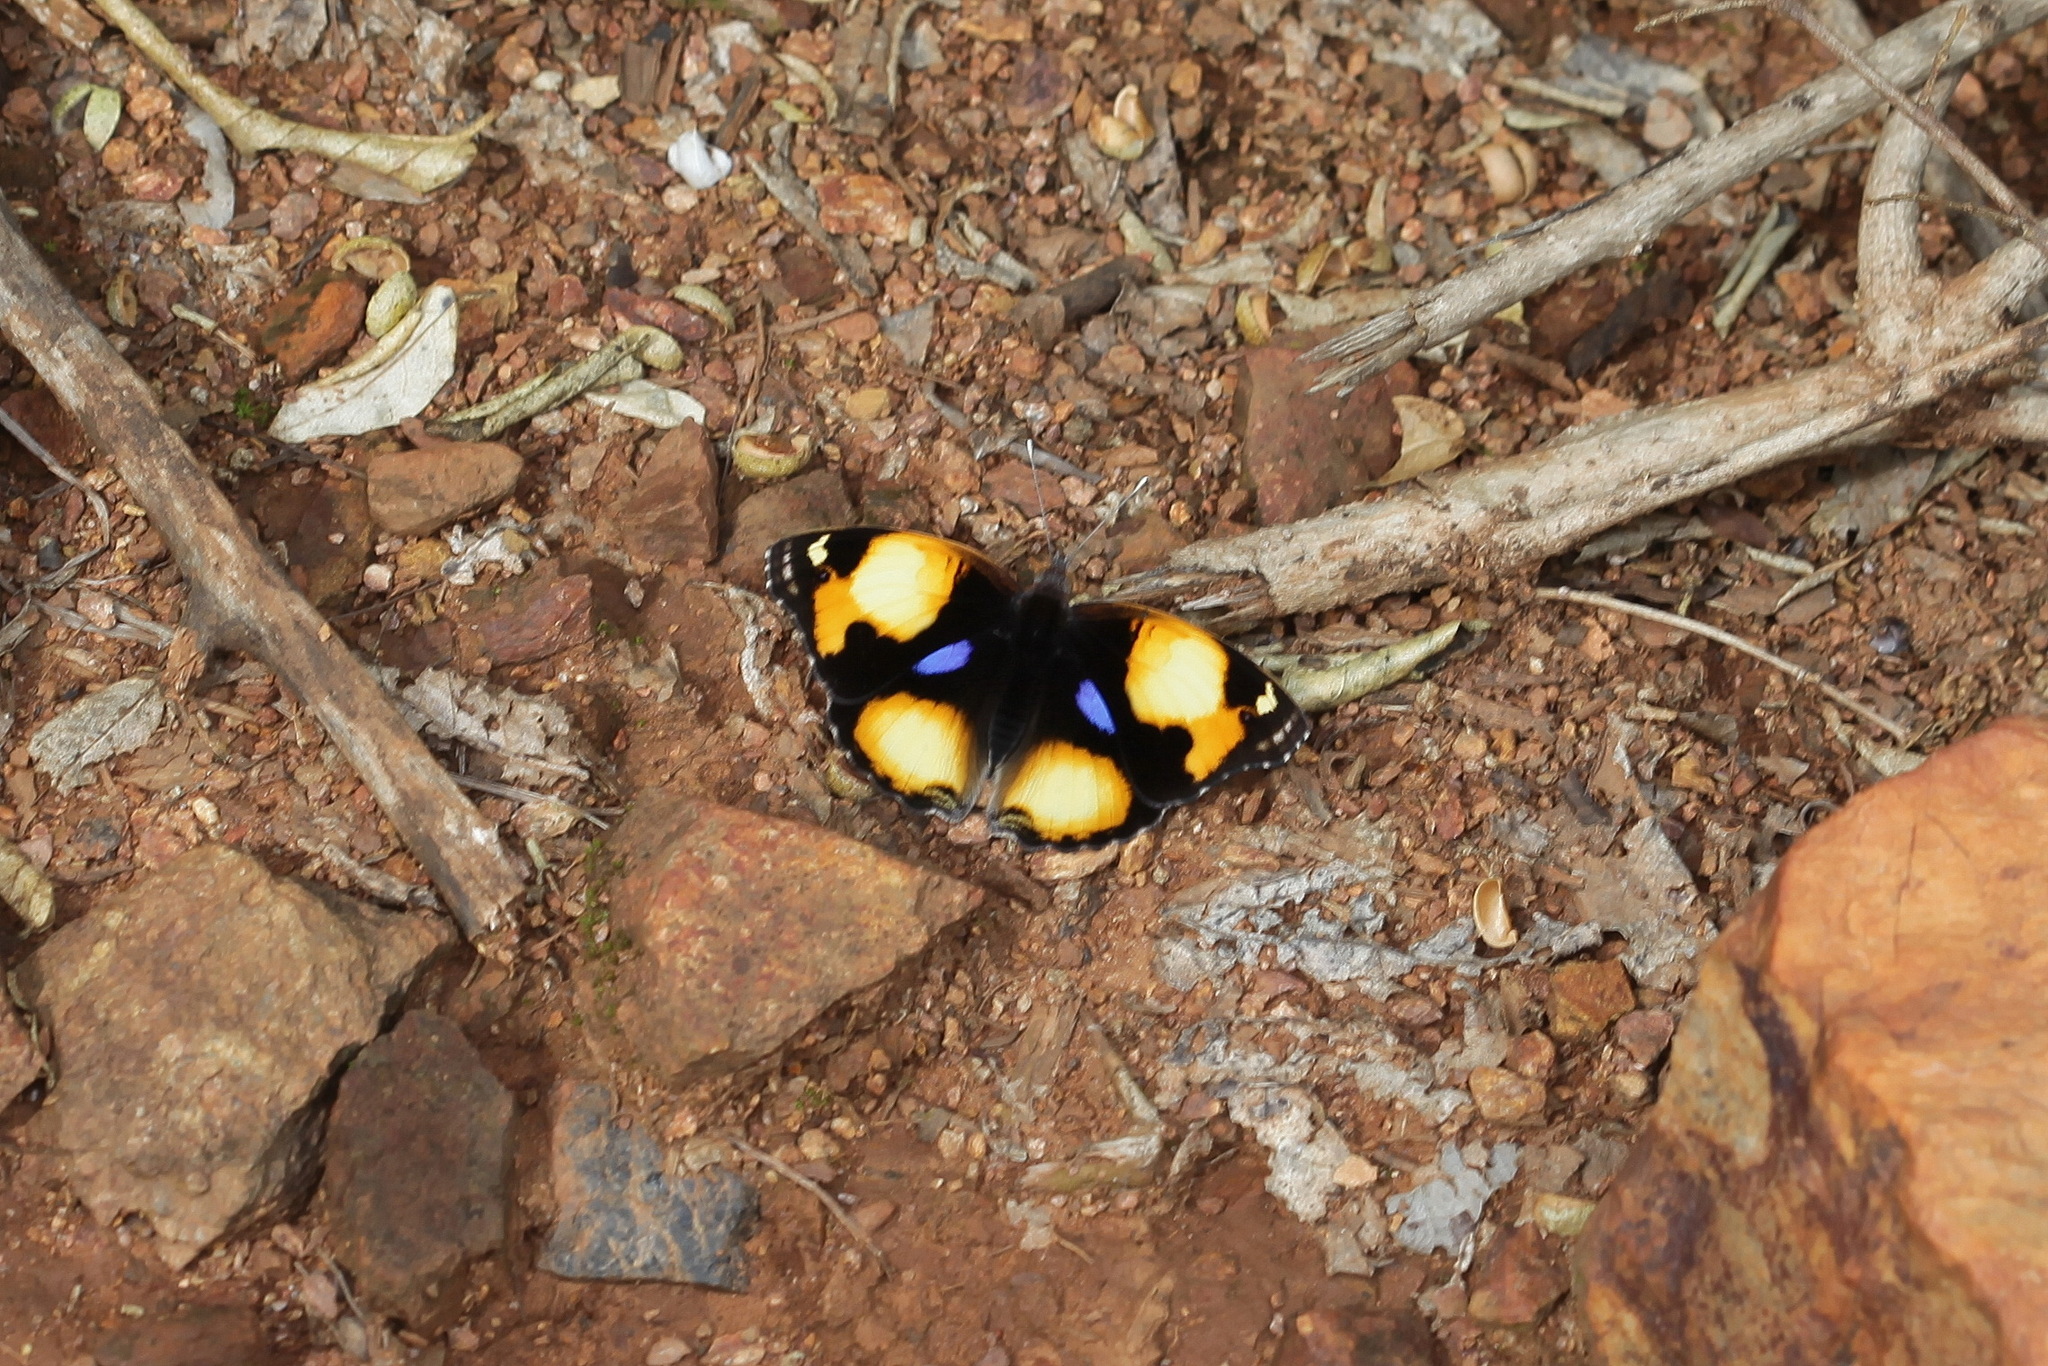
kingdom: Animalia
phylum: Arthropoda
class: Insecta
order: Lepidoptera
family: Nymphalidae
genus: Junonia
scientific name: Junonia hierta
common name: Yellow pansy
